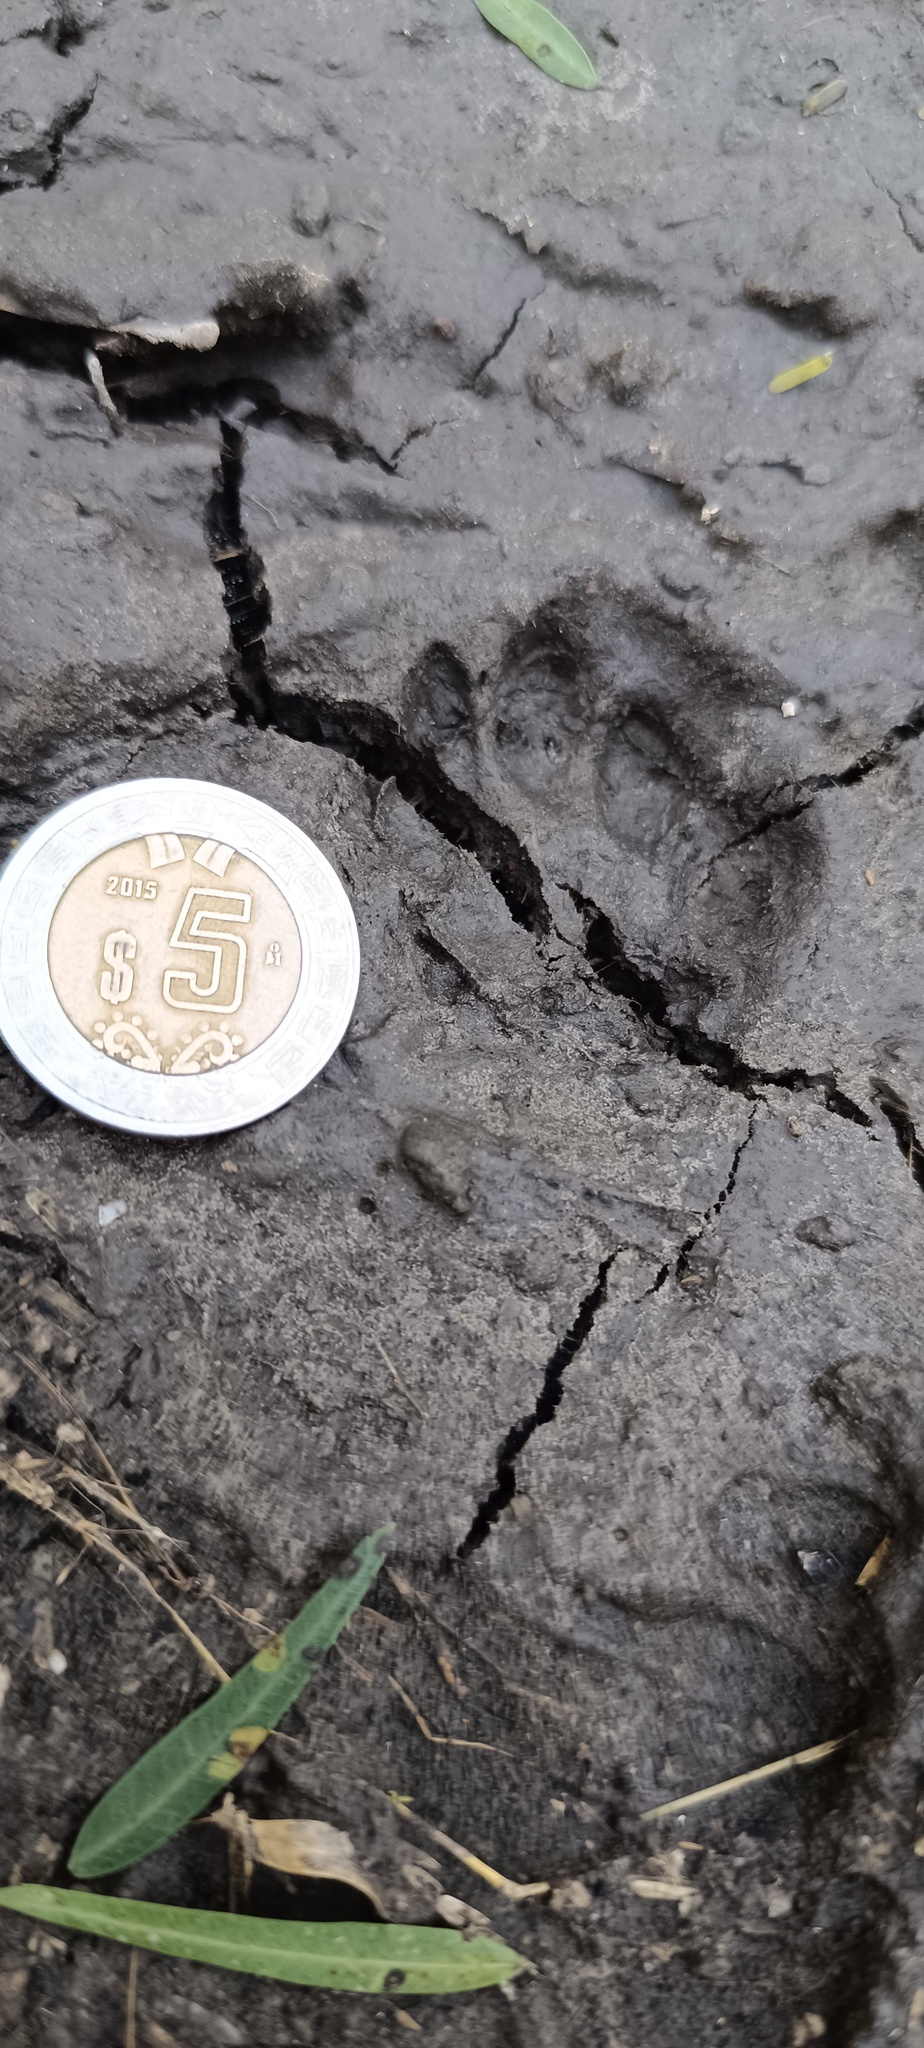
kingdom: Animalia
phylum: Chordata
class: Mammalia
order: Carnivora
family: Procyonidae
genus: Bassariscus
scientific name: Bassariscus astutus
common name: Ringtail
